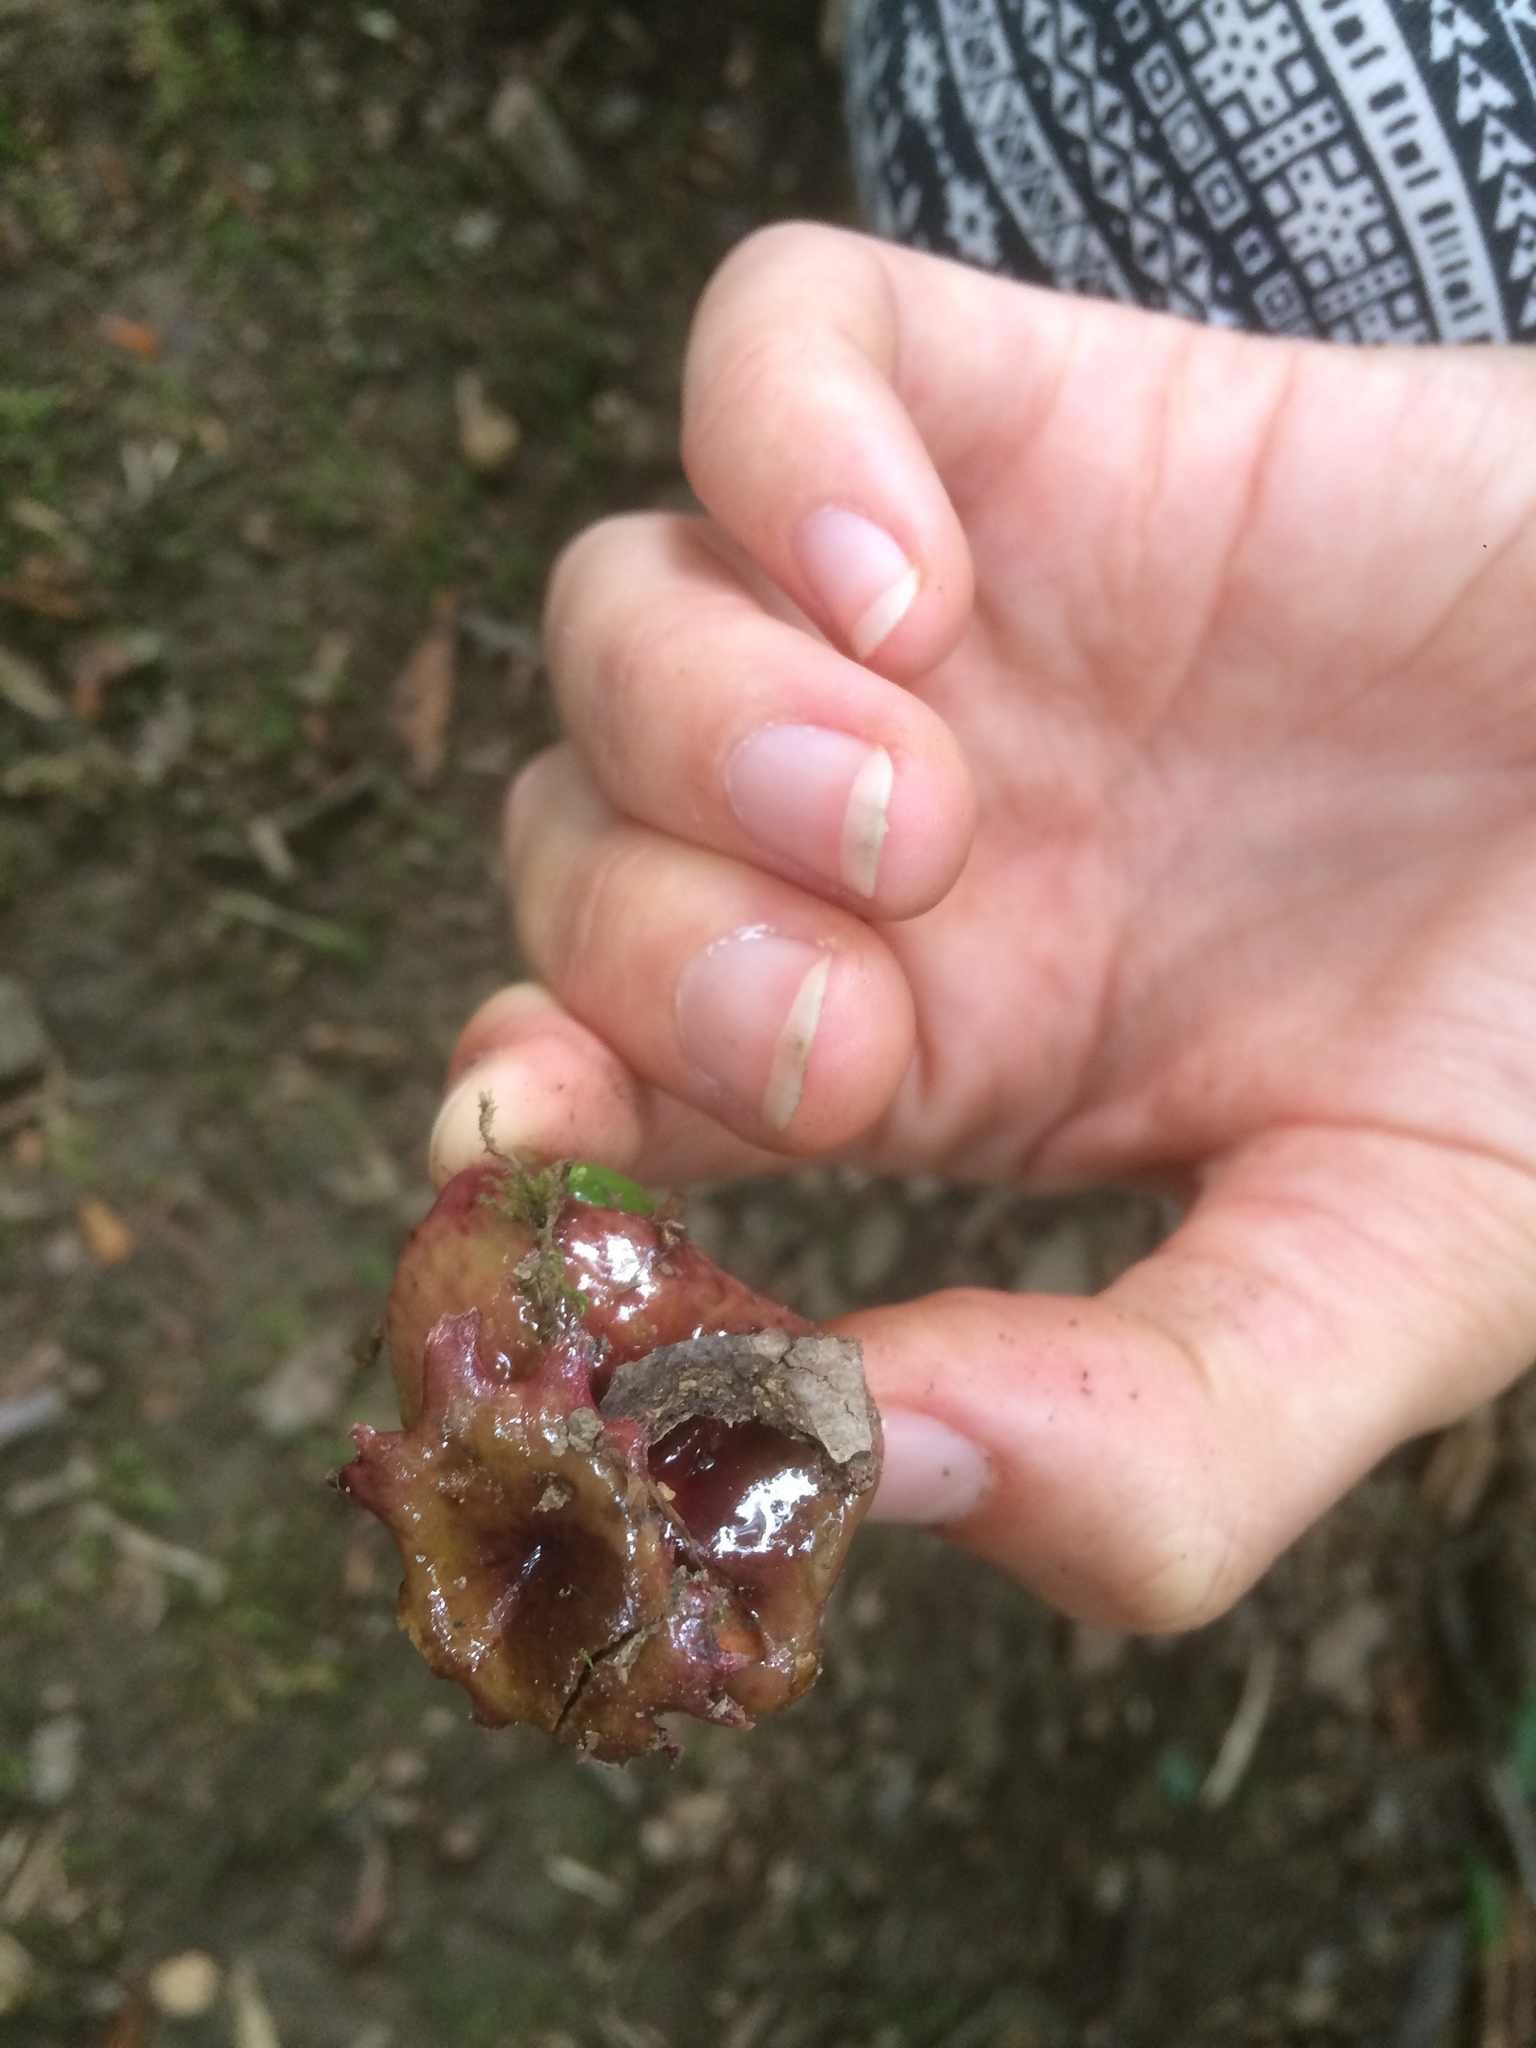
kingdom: Animalia
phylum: Arthropoda
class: Insecta
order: Hymenoptera
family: Cynipidae
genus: Andricus
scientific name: Andricus dentimitratus
